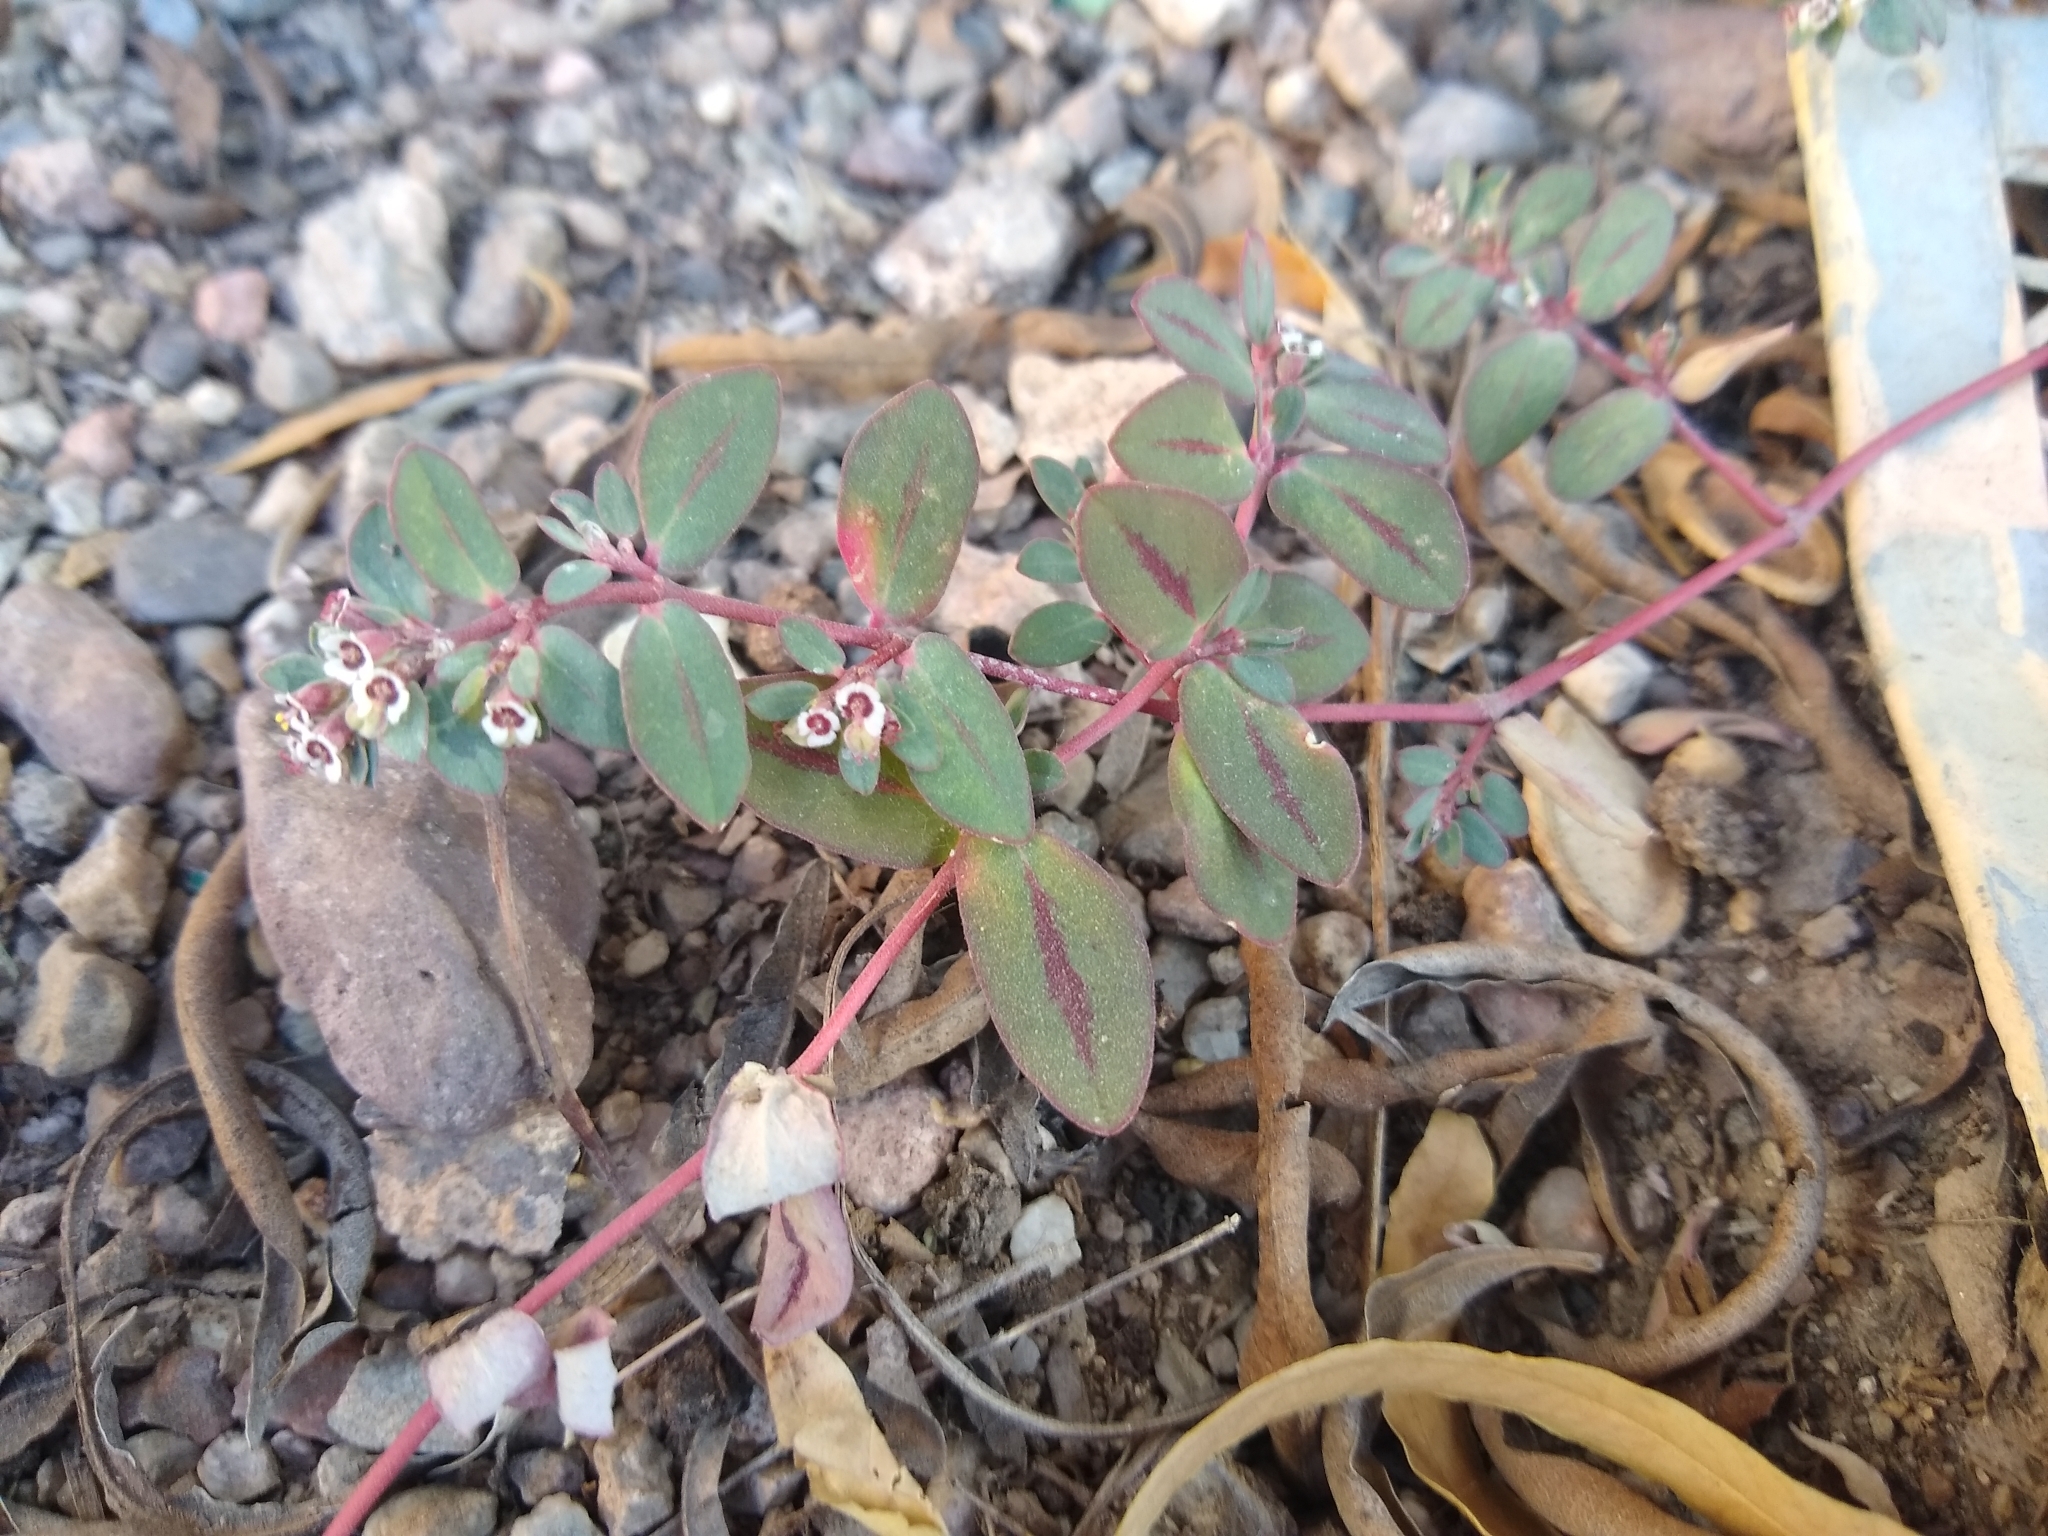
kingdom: Plantae
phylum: Tracheophyta
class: Magnoliopsida
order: Malpighiales
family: Euphorbiaceae
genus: Euphorbia
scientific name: Euphorbia pediculifera
